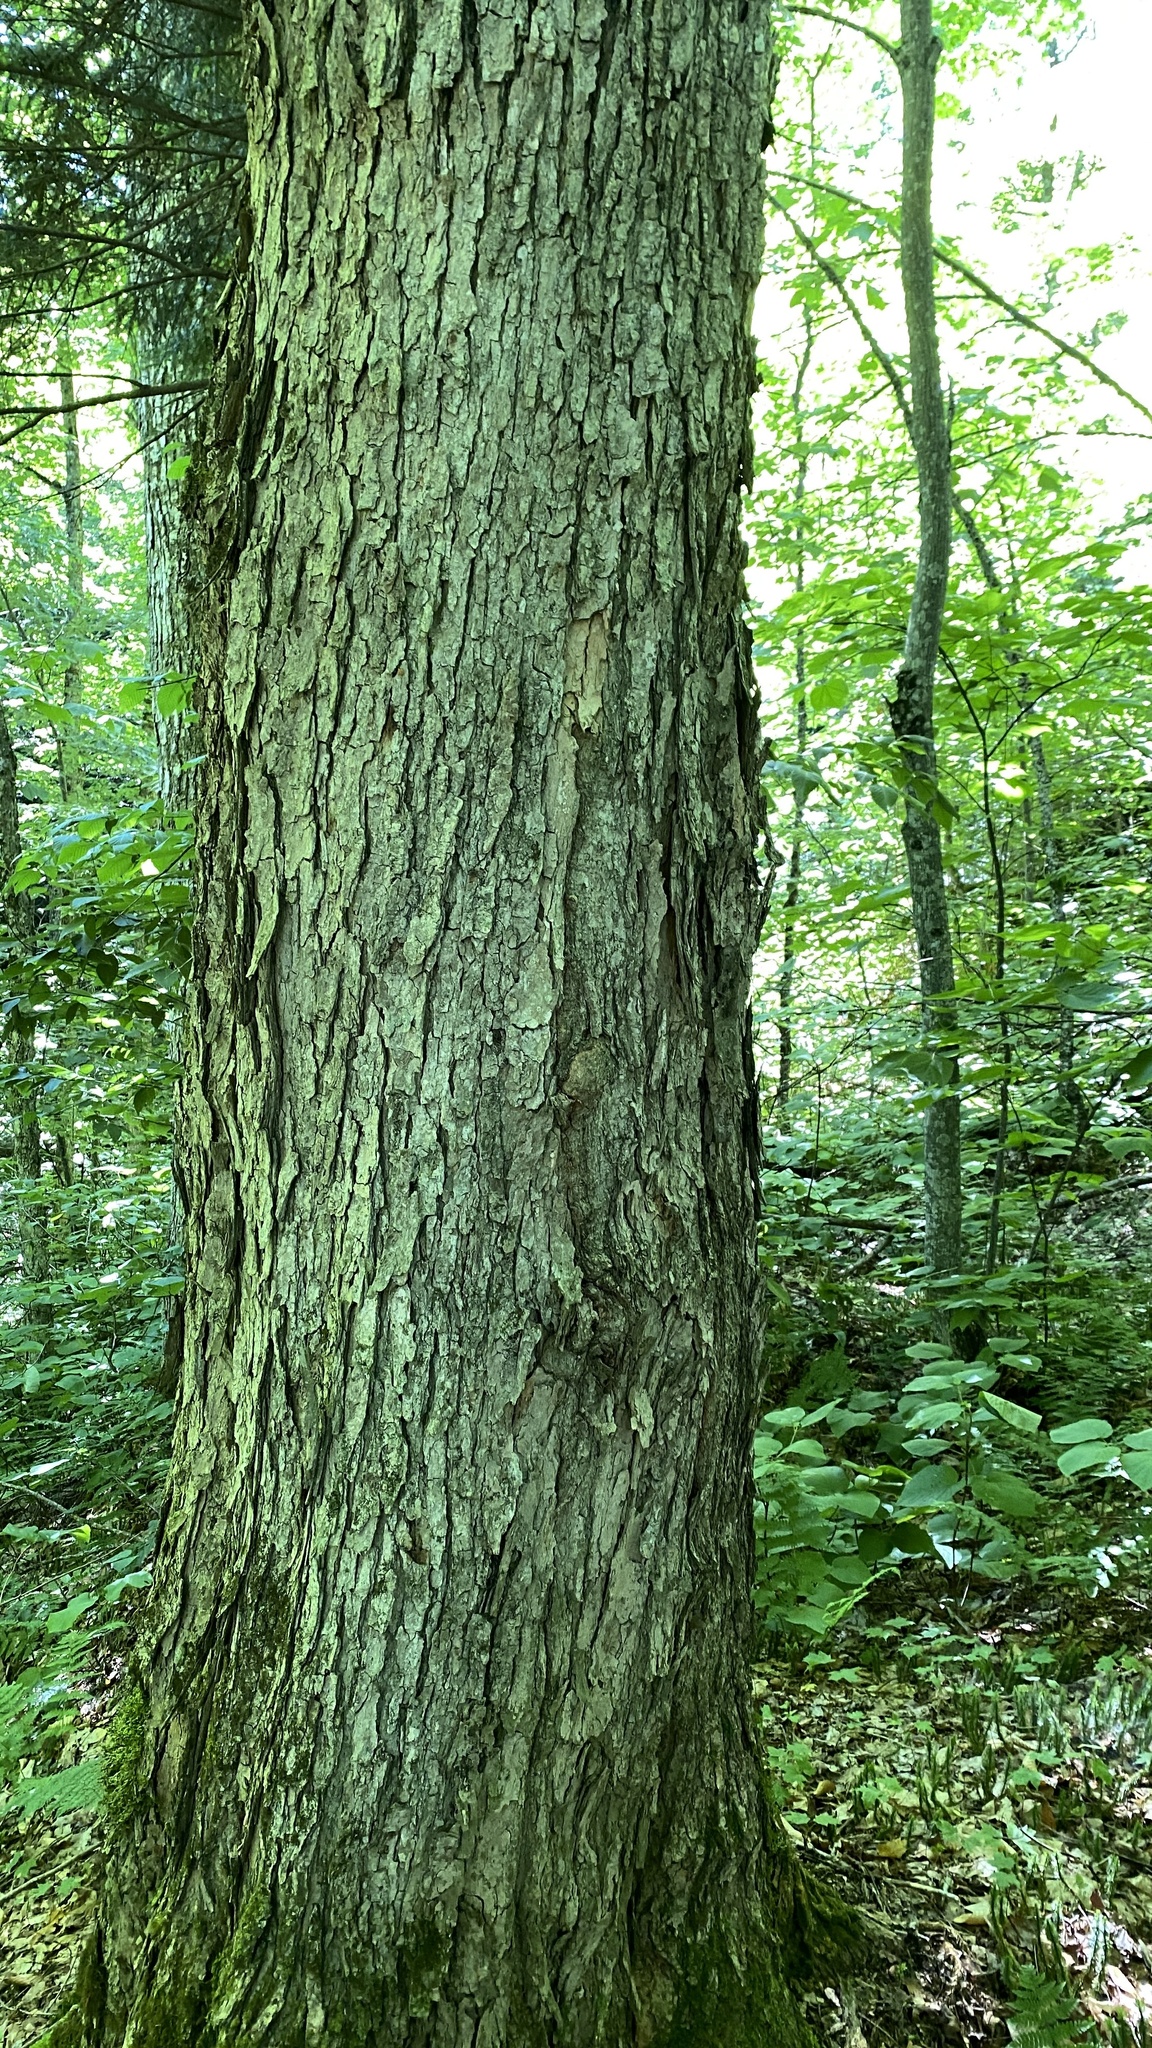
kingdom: Plantae
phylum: Tracheophyta
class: Magnoliopsida
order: Sapindales
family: Sapindaceae
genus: Acer
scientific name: Acer saccharum
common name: Sugar maple
